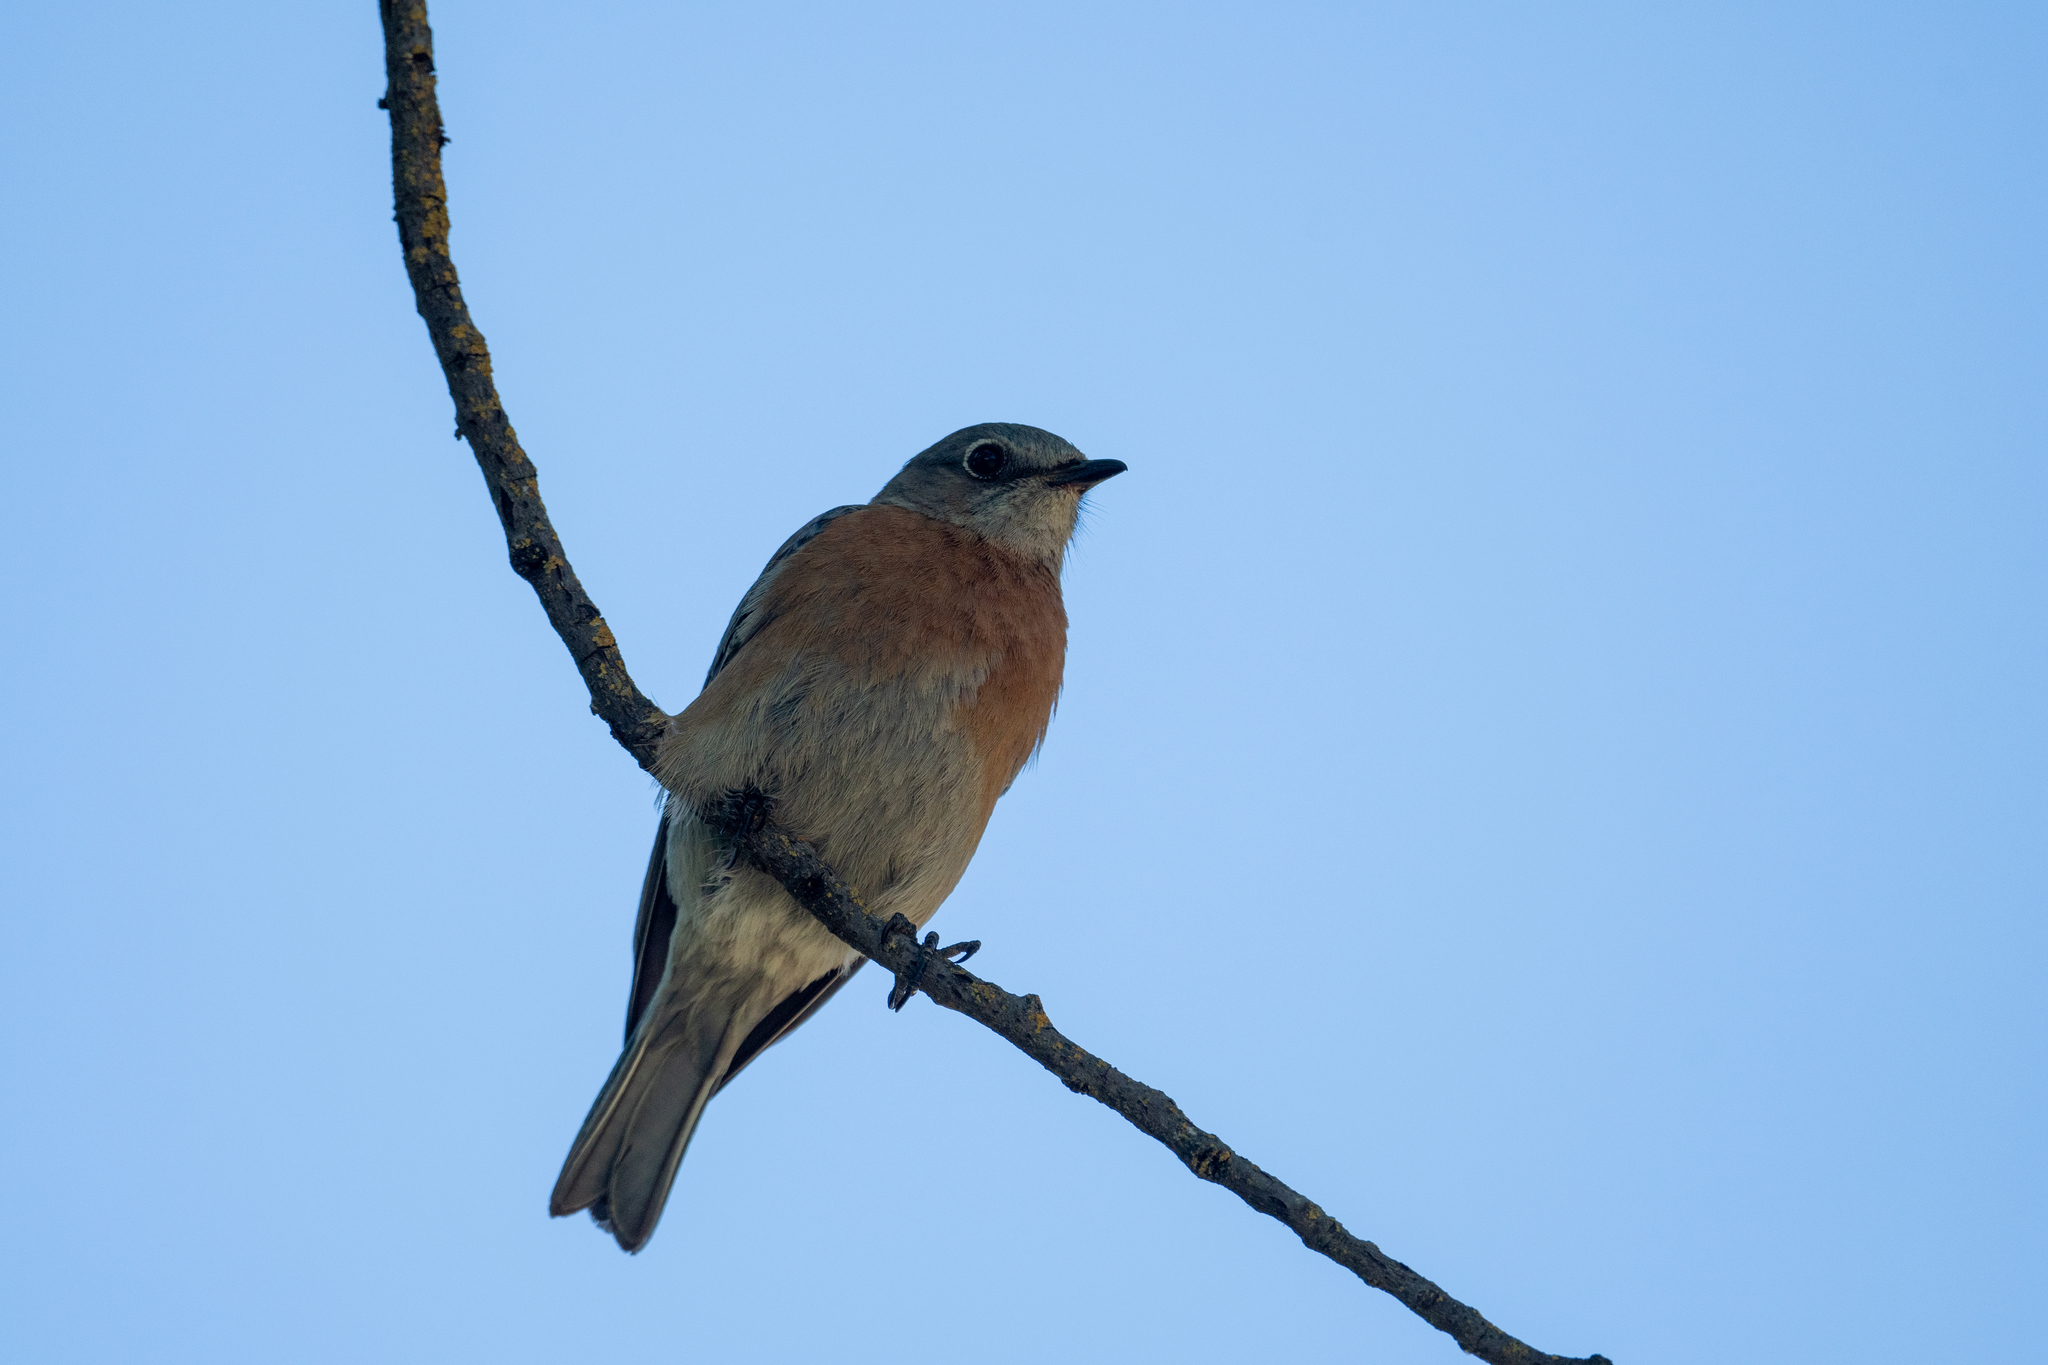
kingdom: Animalia
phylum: Chordata
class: Aves
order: Passeriformes
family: Turdidae
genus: Sialia
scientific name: Sialia mexicana
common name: Western bluebird
